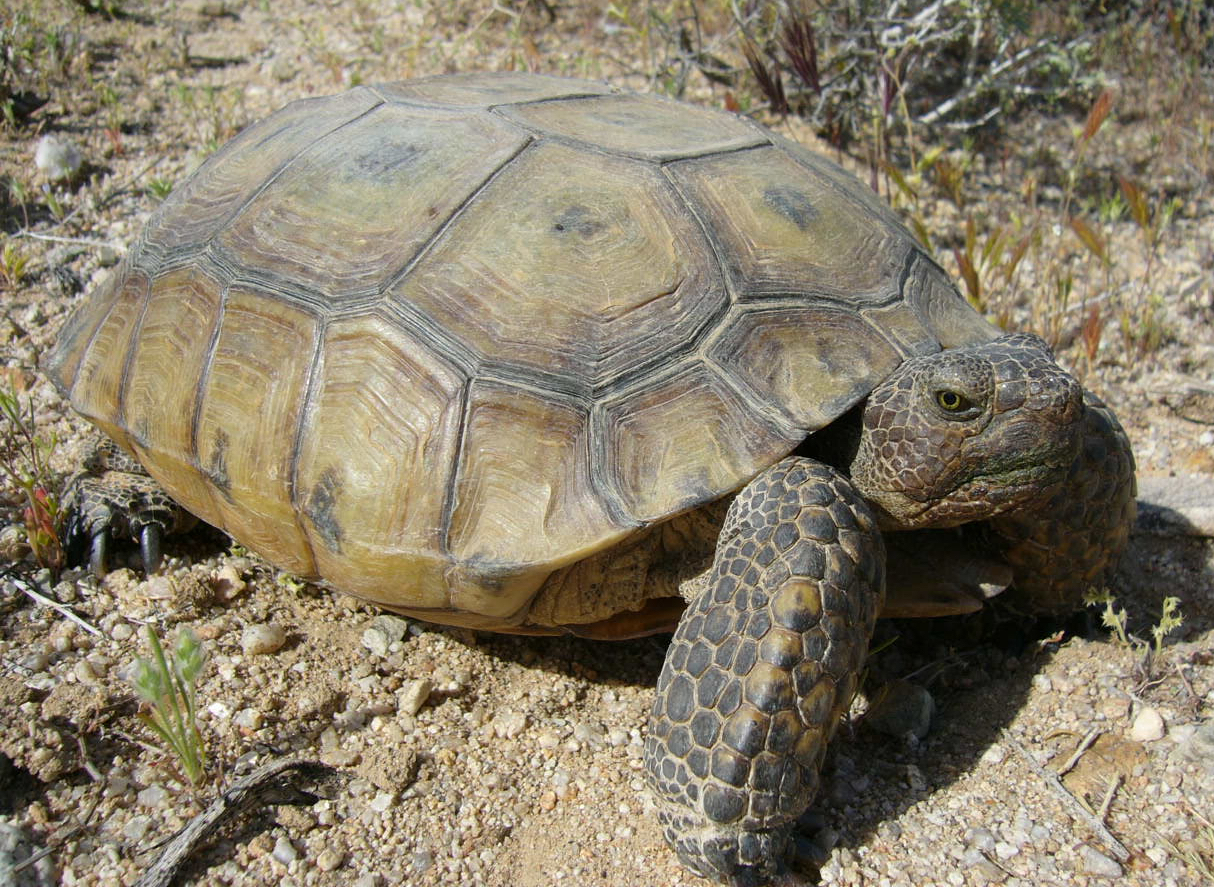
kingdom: Animalia
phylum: Chordata
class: Testudines
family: Testudinidae
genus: Gopherus
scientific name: Gopherus agassizii
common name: Mojave desert tortoise
